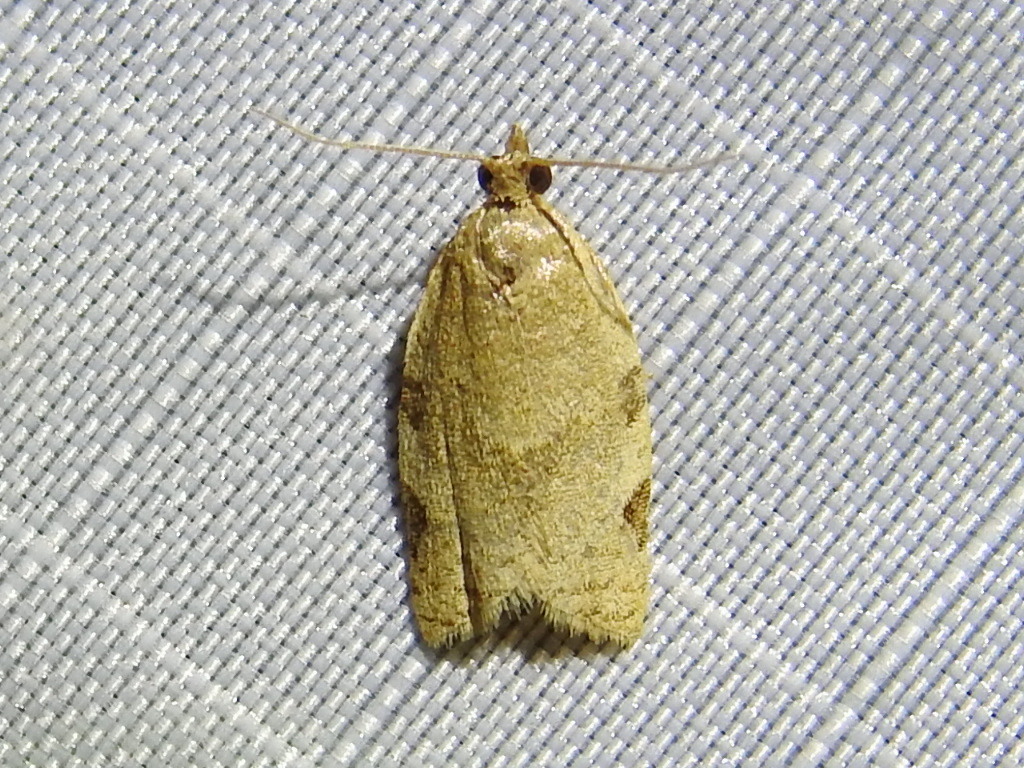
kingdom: Animalia
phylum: Arthropoda
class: Insecta
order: Lepidoptera
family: Tortricidae
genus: Clepsis
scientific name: Clepsis virescana
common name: Greenish apple moth
